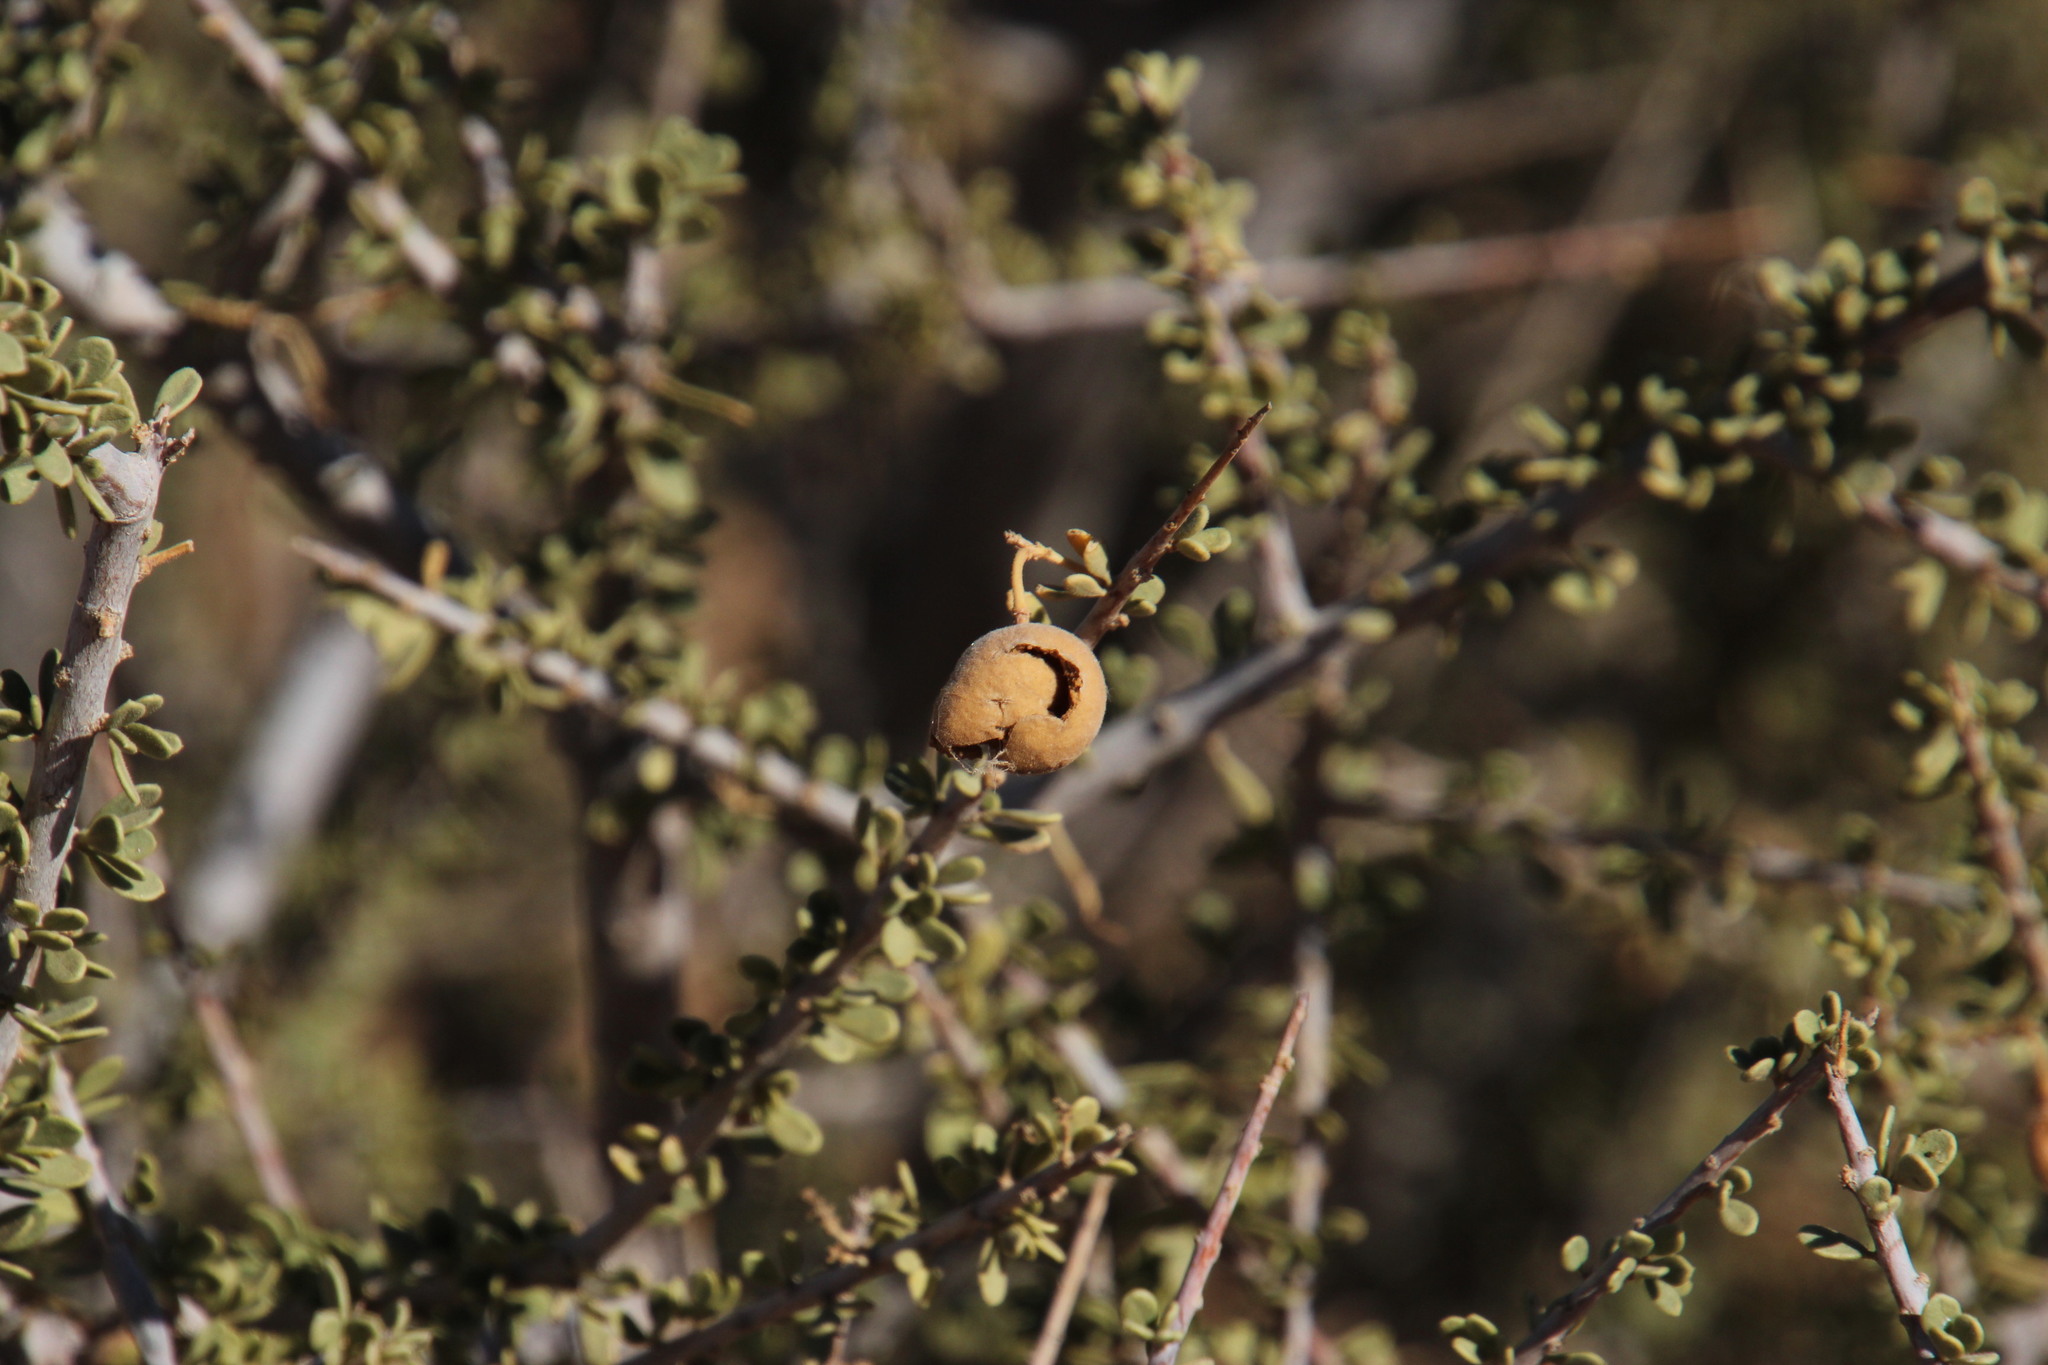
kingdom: Plantae
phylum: Tracheophyta
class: Magnoliopsida
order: Brassicales
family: Capparaceae
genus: Boscia
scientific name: Boscia foetida
